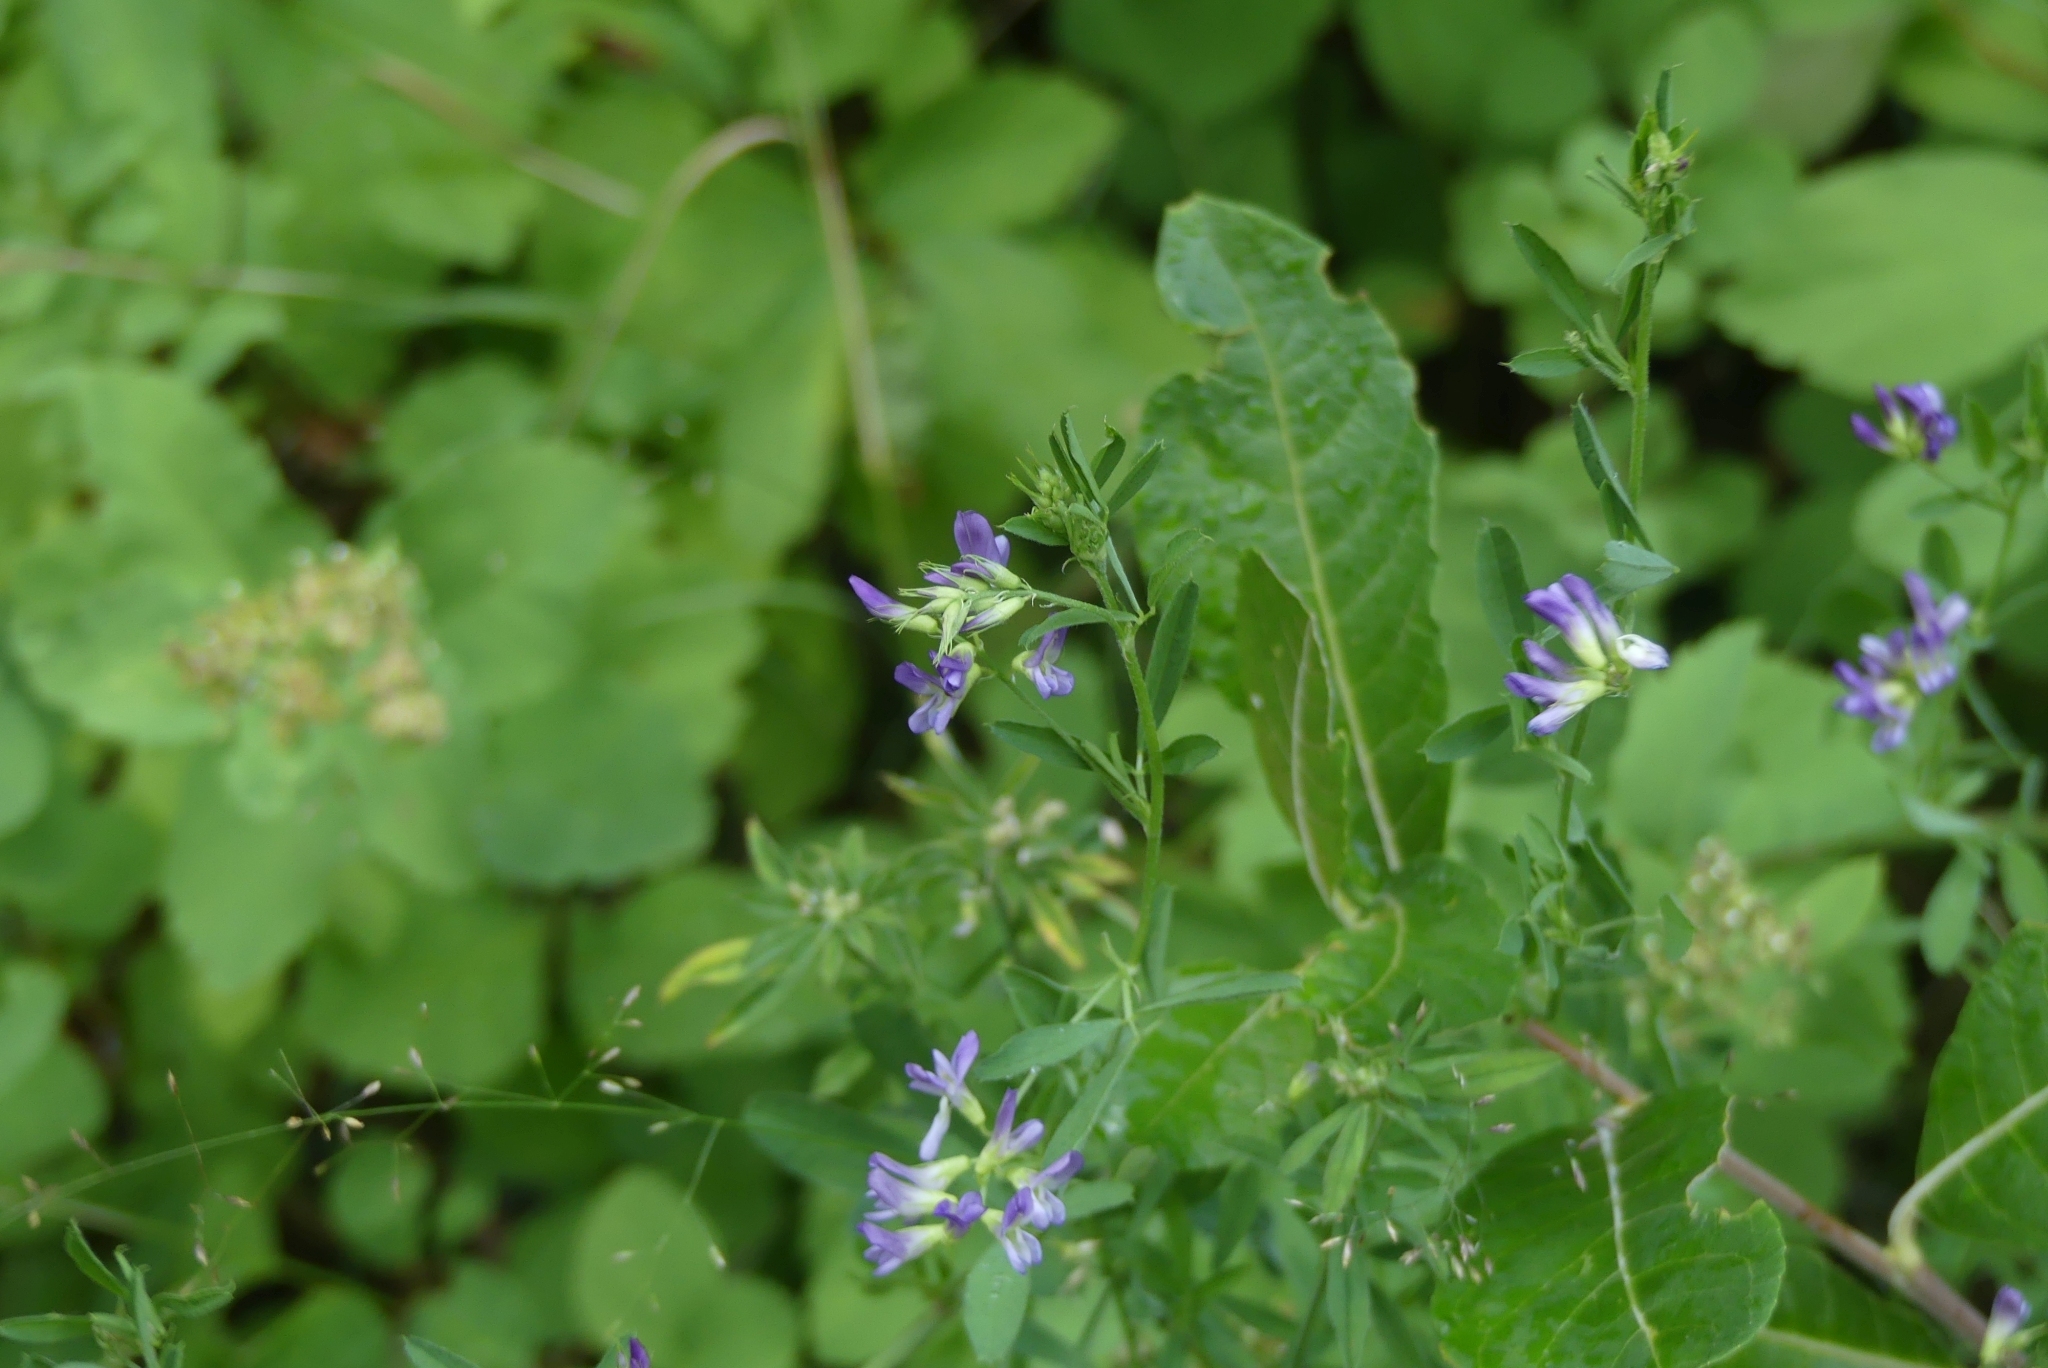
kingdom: Plantae
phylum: Tracheophyta
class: Magnoliopsida
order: Fabales
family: Fabaceae
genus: Medicago
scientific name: Medicago sativa
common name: Alfalfa
